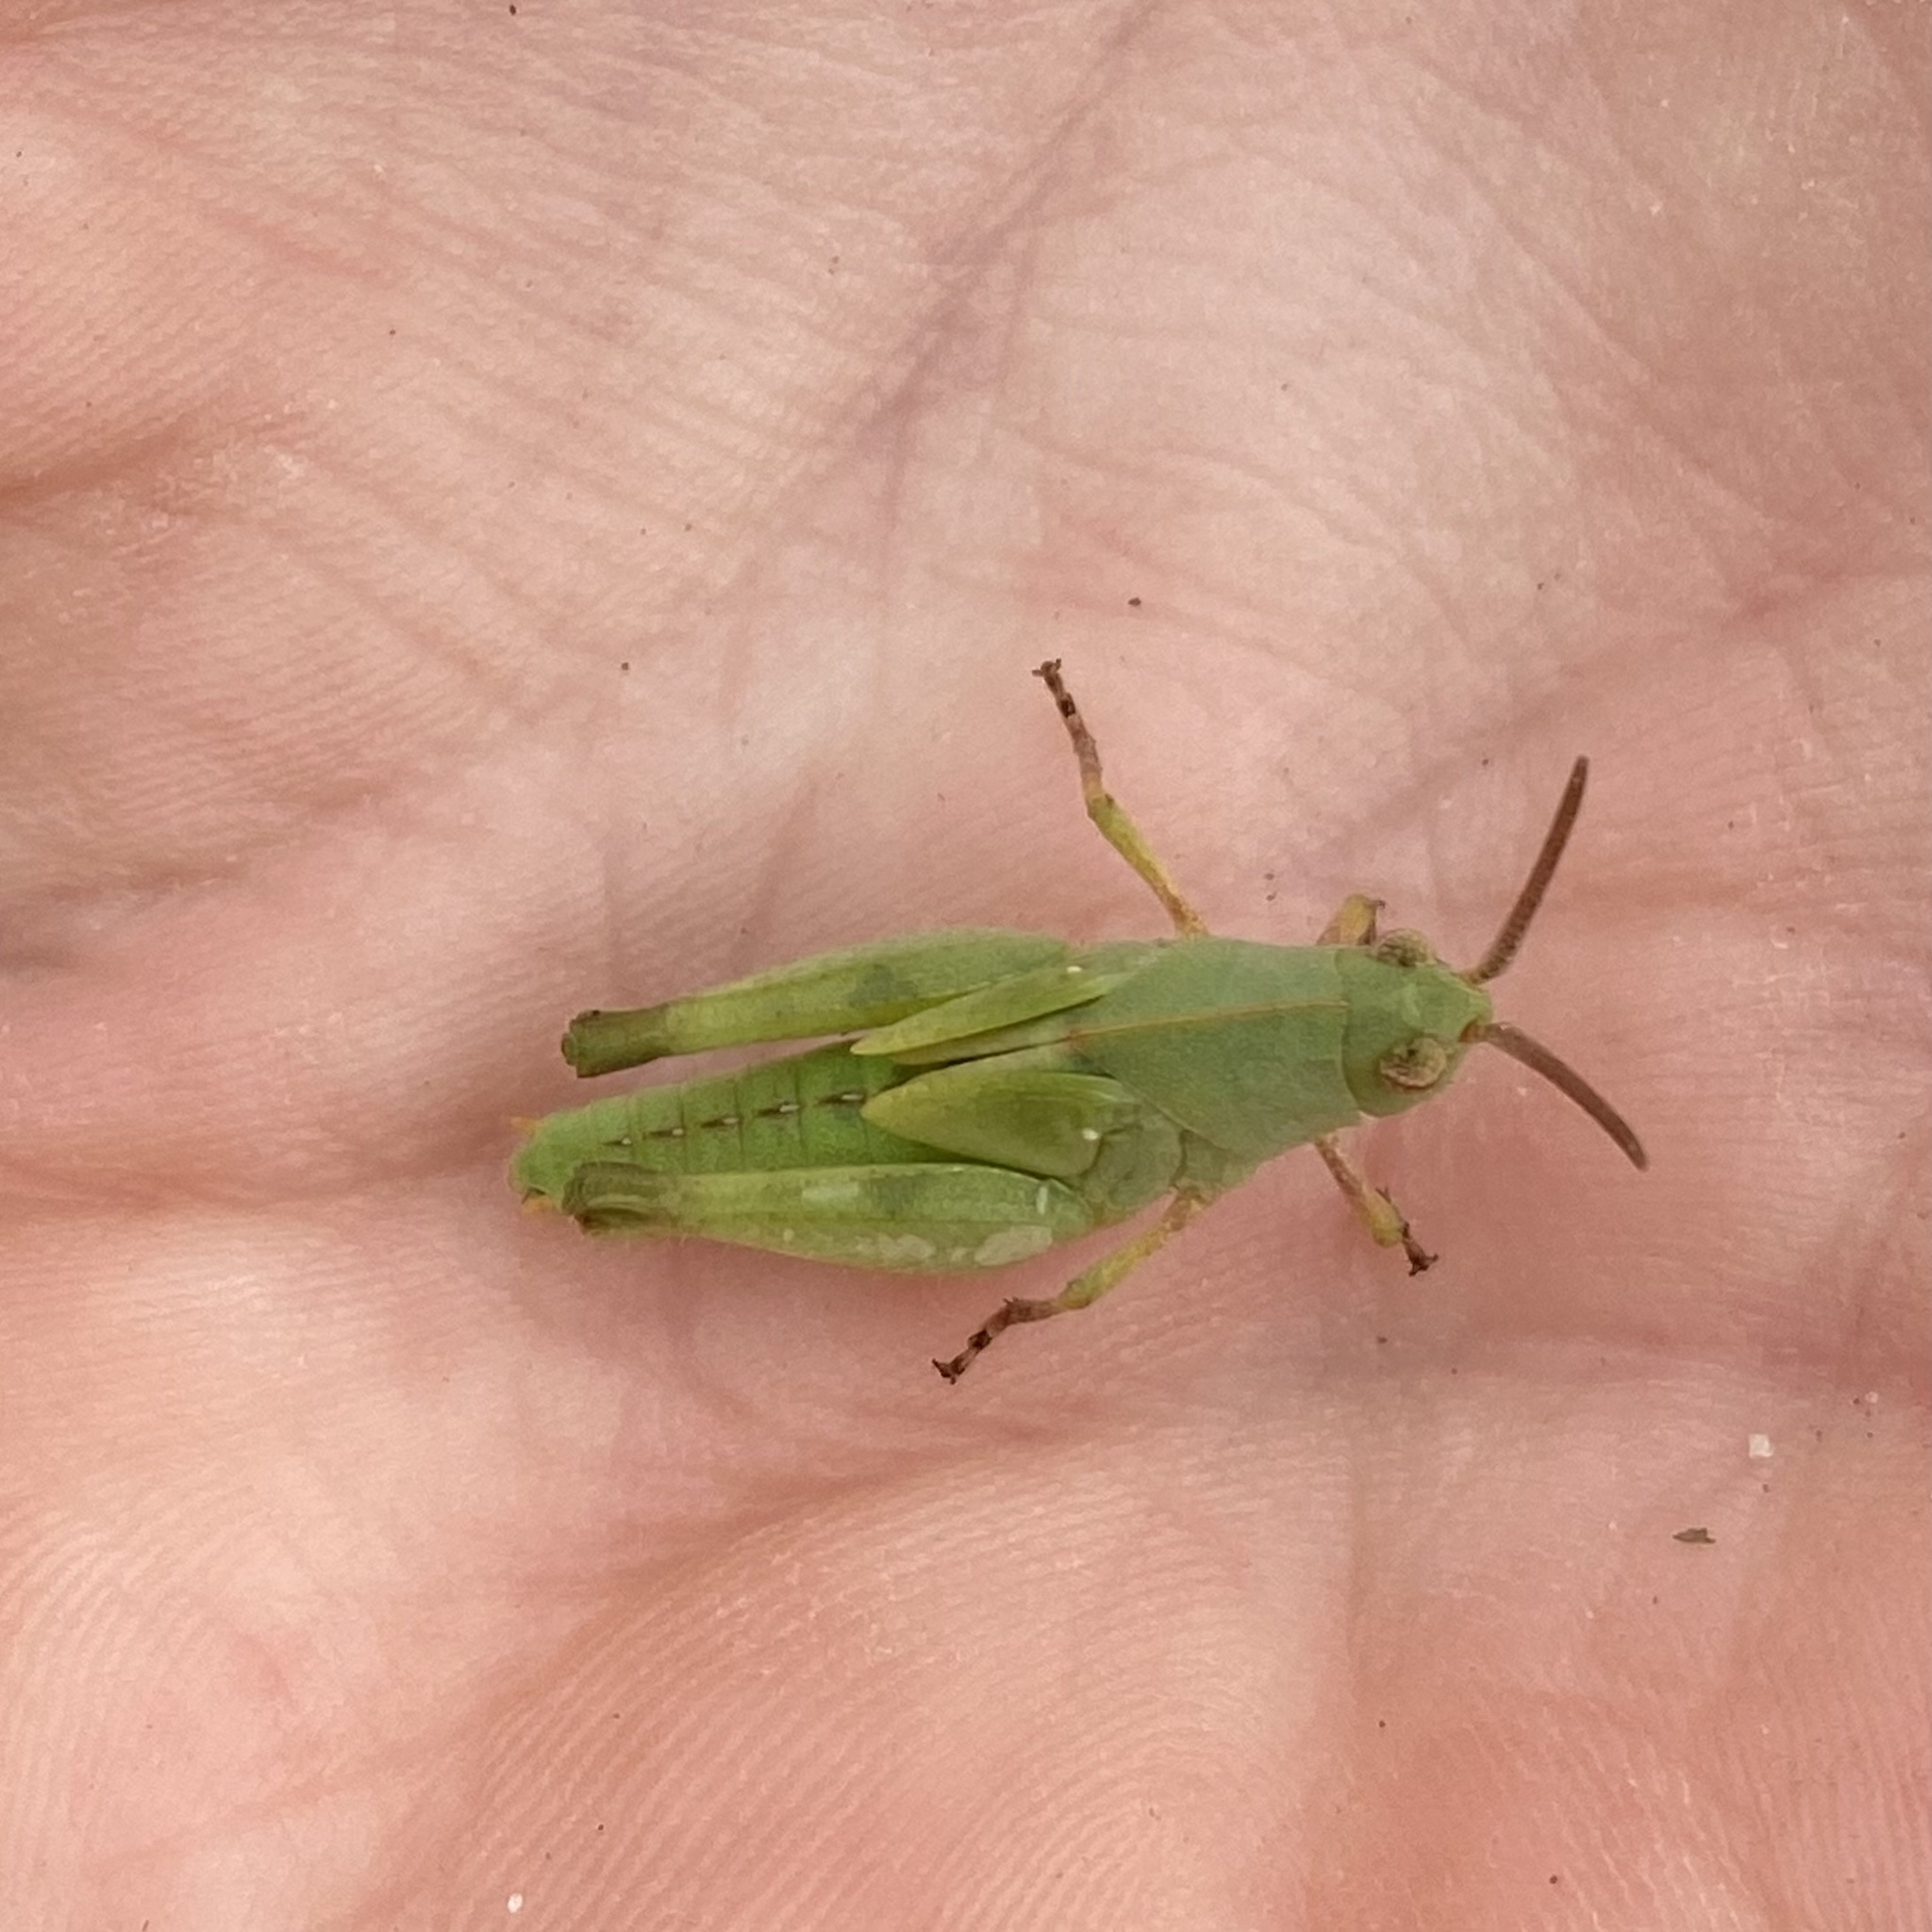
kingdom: Animalia
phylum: Arthropoda
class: Insecta
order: Orthoptera
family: Acrididae
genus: Chortophaga
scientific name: Chortophaga australior
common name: Southern green-striped grasshopper
